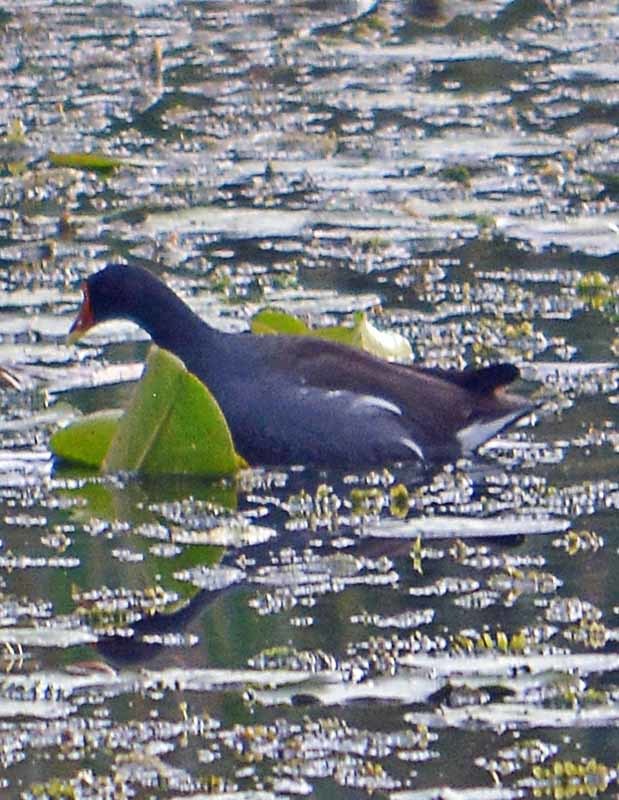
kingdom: Animalia
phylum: Chordata
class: Aves
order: Gruiformes
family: Rallidae
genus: Gallinula
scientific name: Gallinula chloropus
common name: Common moorhen
